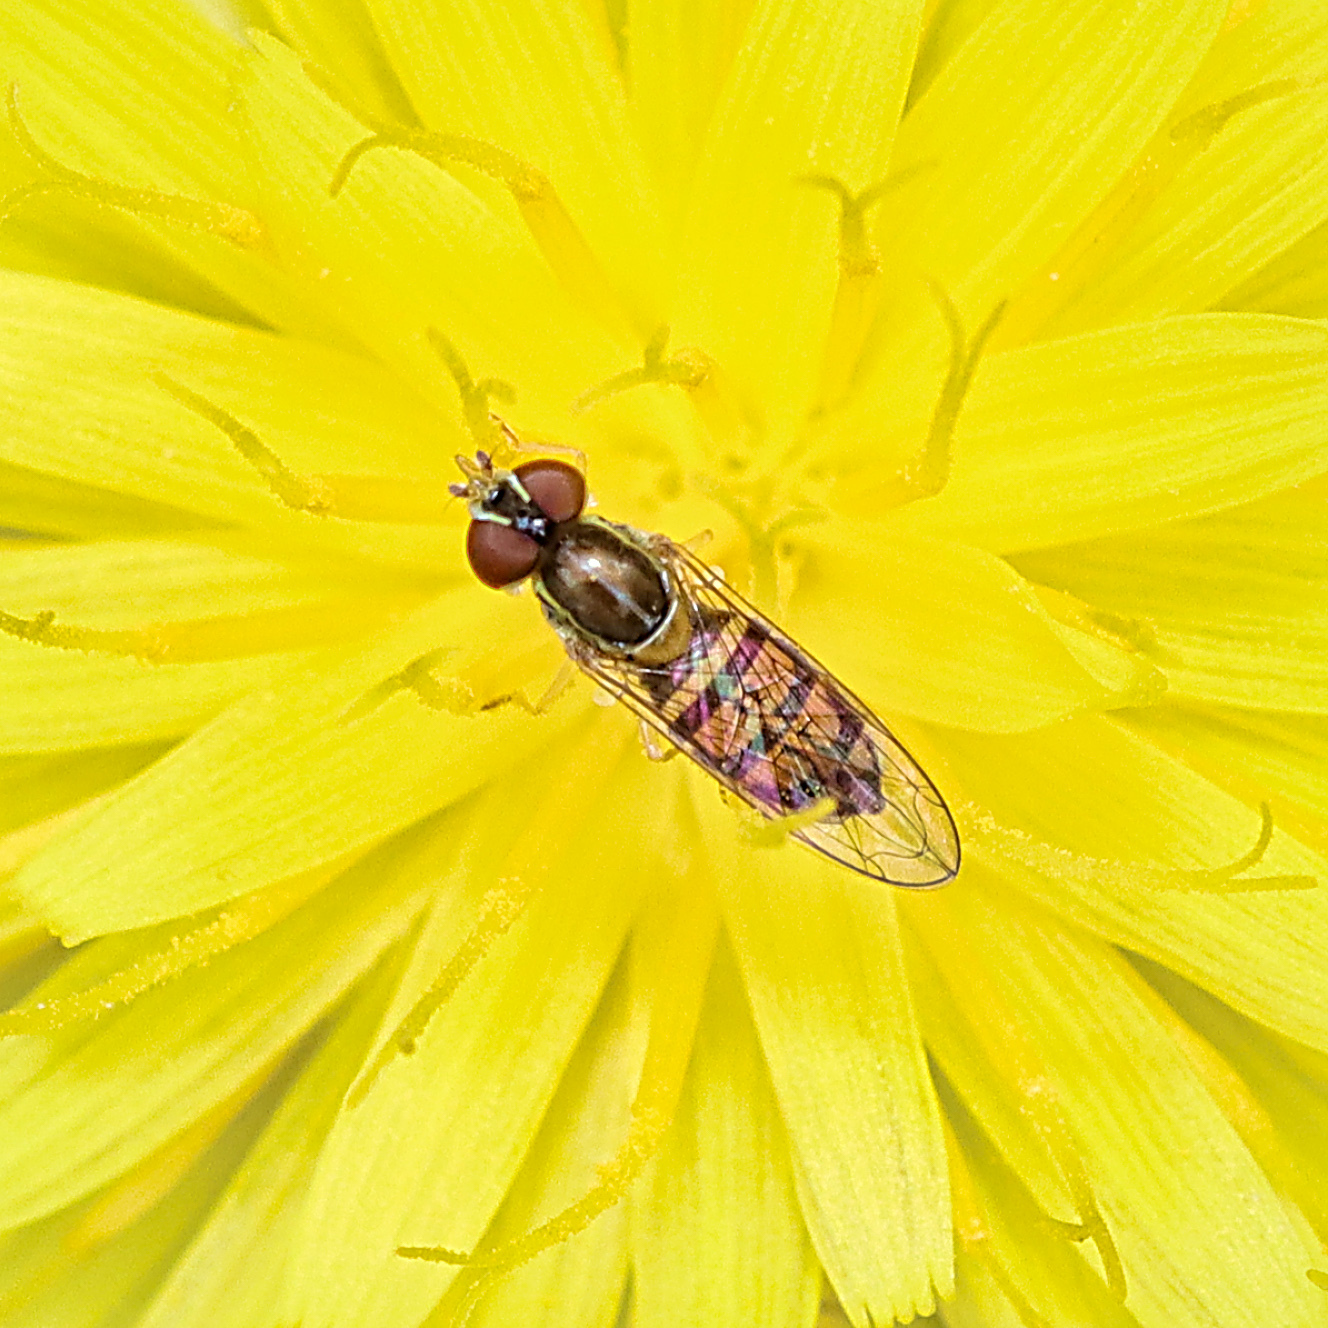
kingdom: Animalia
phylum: Arthropoda
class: Insecta
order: Diptera
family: Syrphidae
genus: Toxomerus
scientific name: Toxomerus marginatus
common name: Syrphid fly
